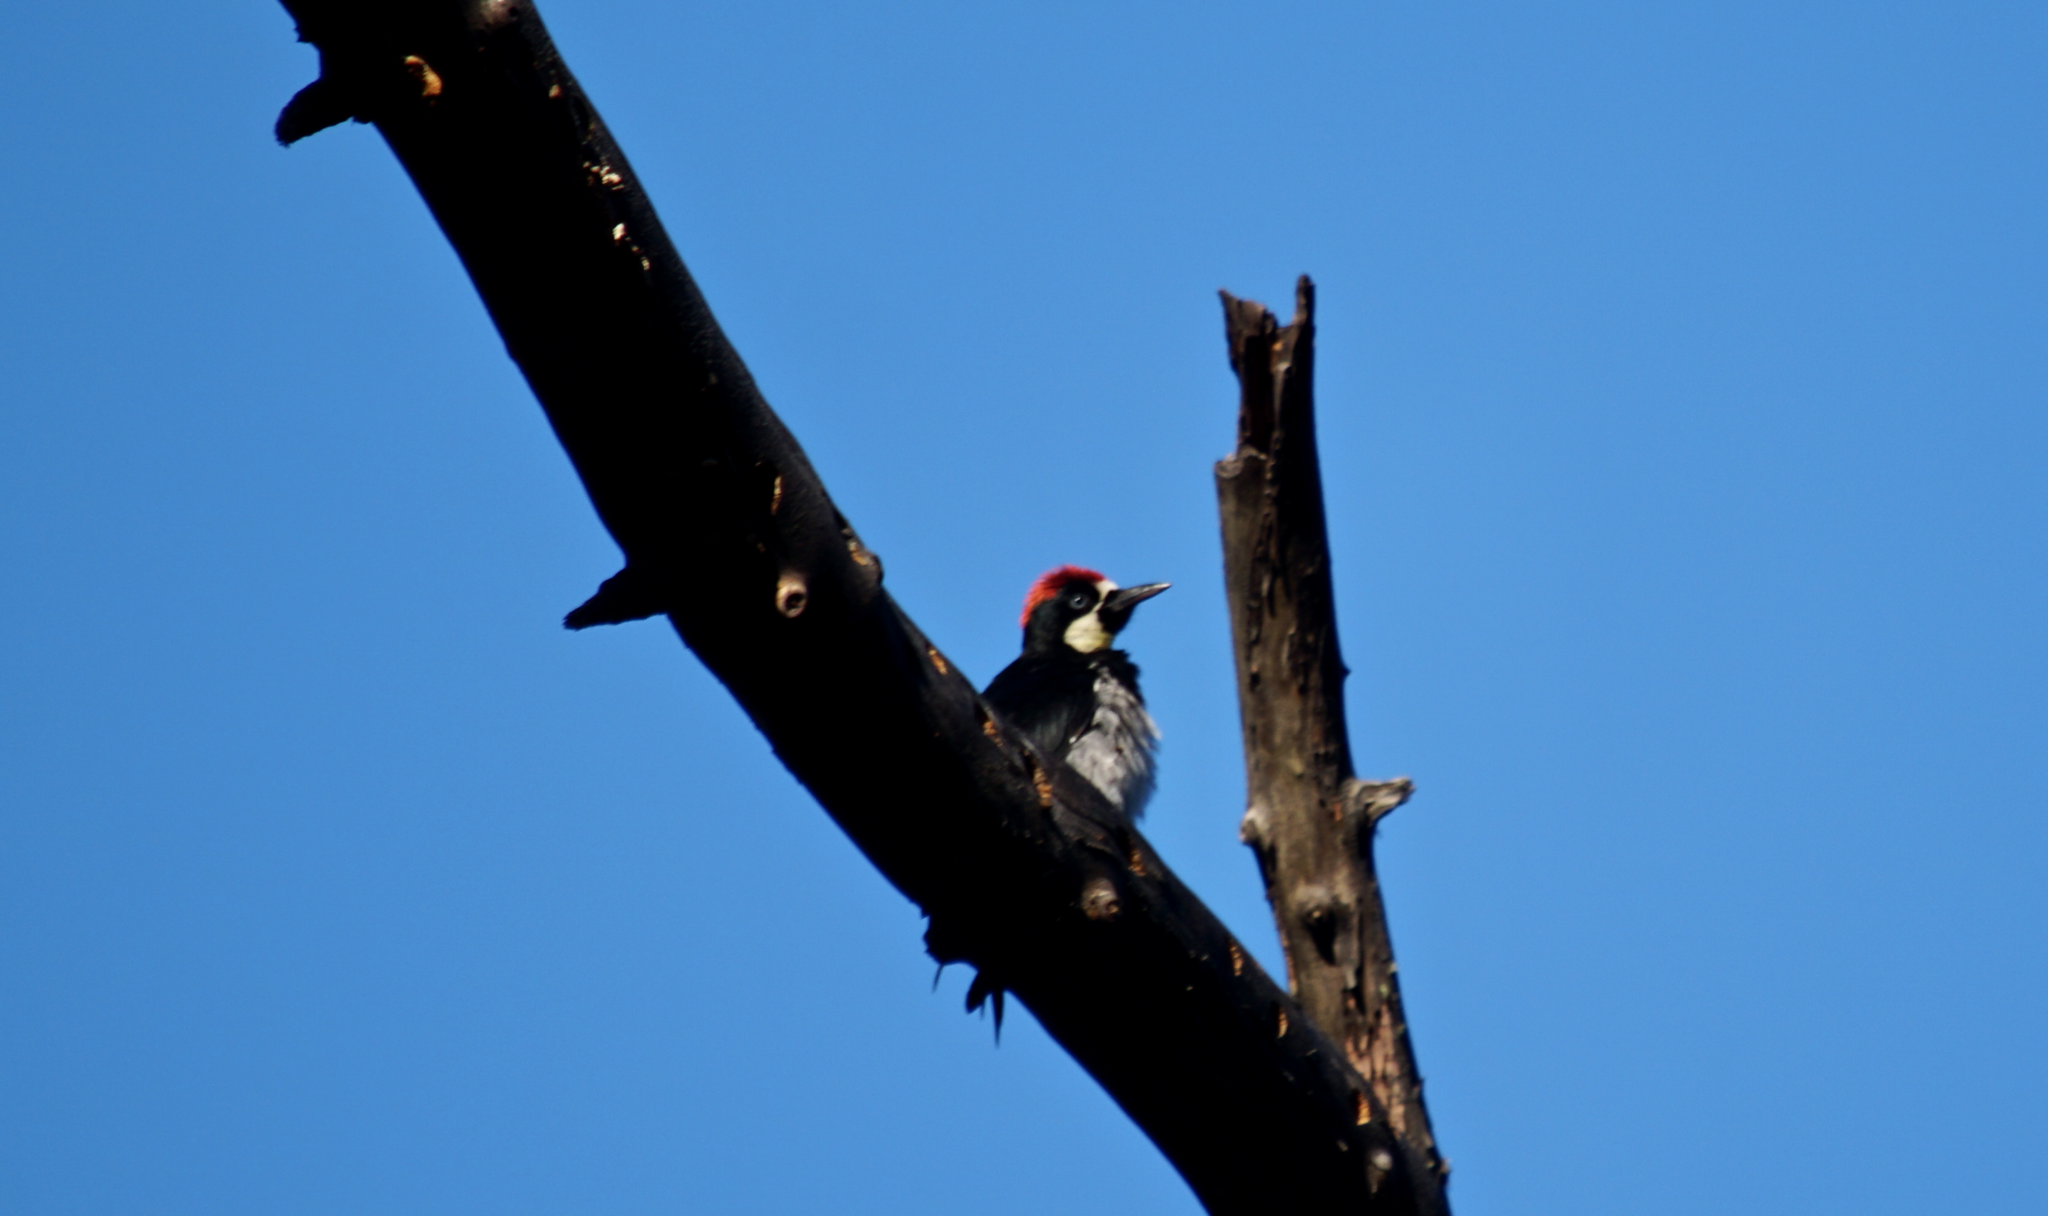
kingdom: Animalia
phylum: Chordata
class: Aves
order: Piciformes
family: Picidae
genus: Melanerpes
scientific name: Melanerpes formicivorus
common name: Acorn woodpecker
